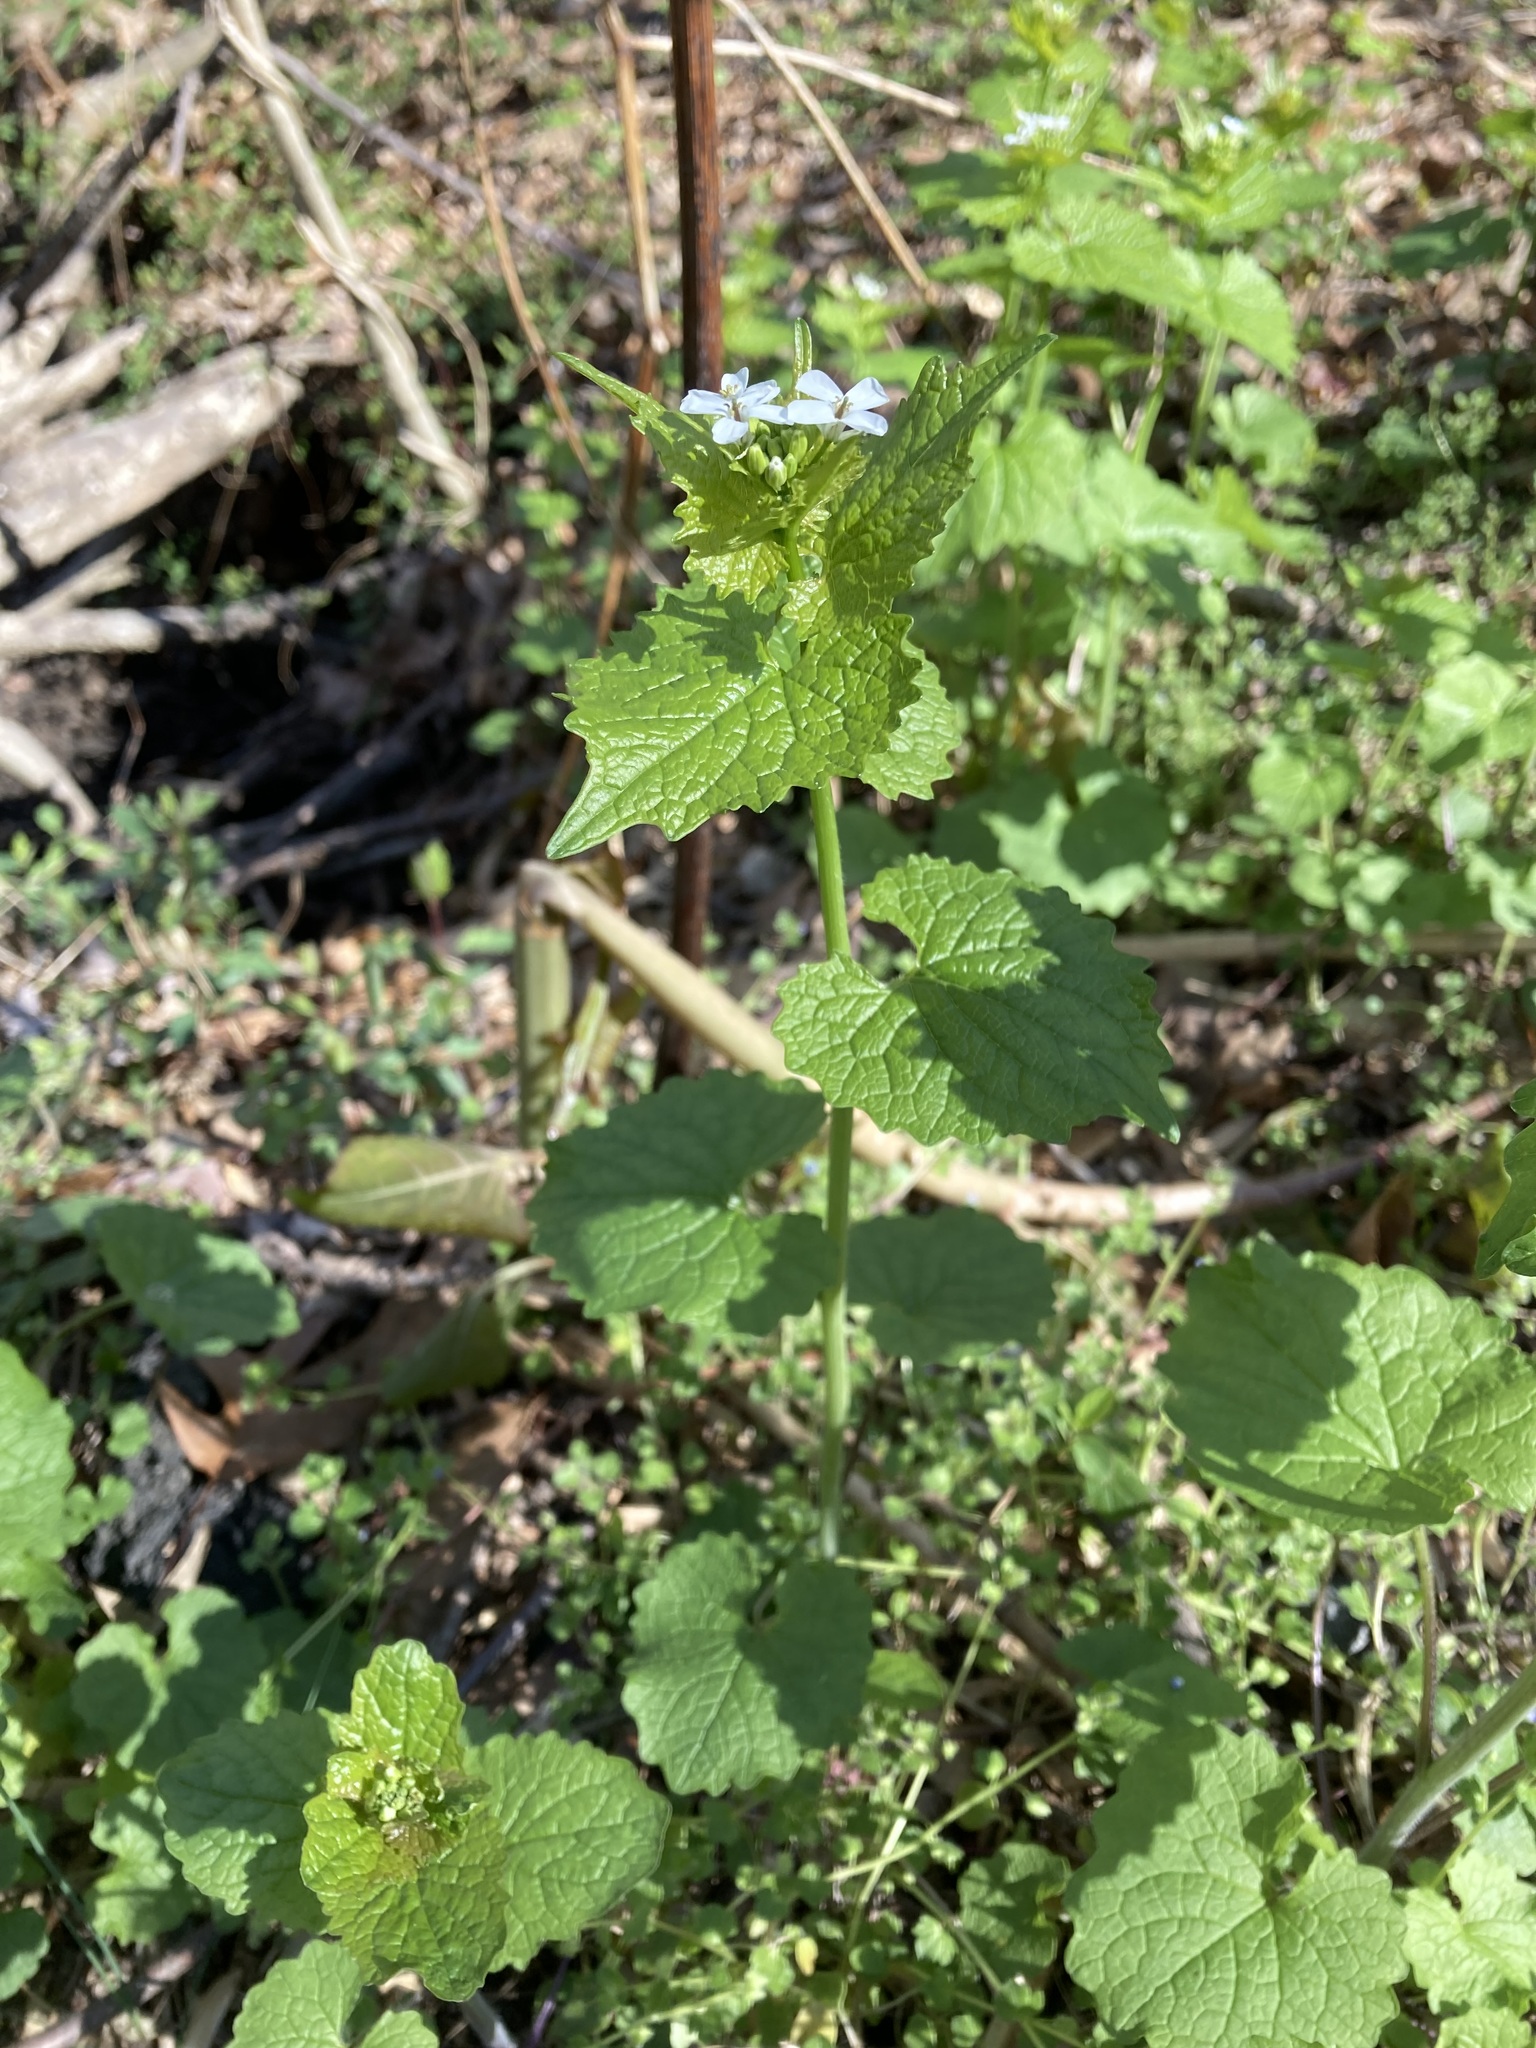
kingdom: Plantae
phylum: Tracheophyta
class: Magnoliopsida
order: Brassicales
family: Brassicaceae
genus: Alliaria
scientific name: Alliaria petiolata
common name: Garlic mustard
